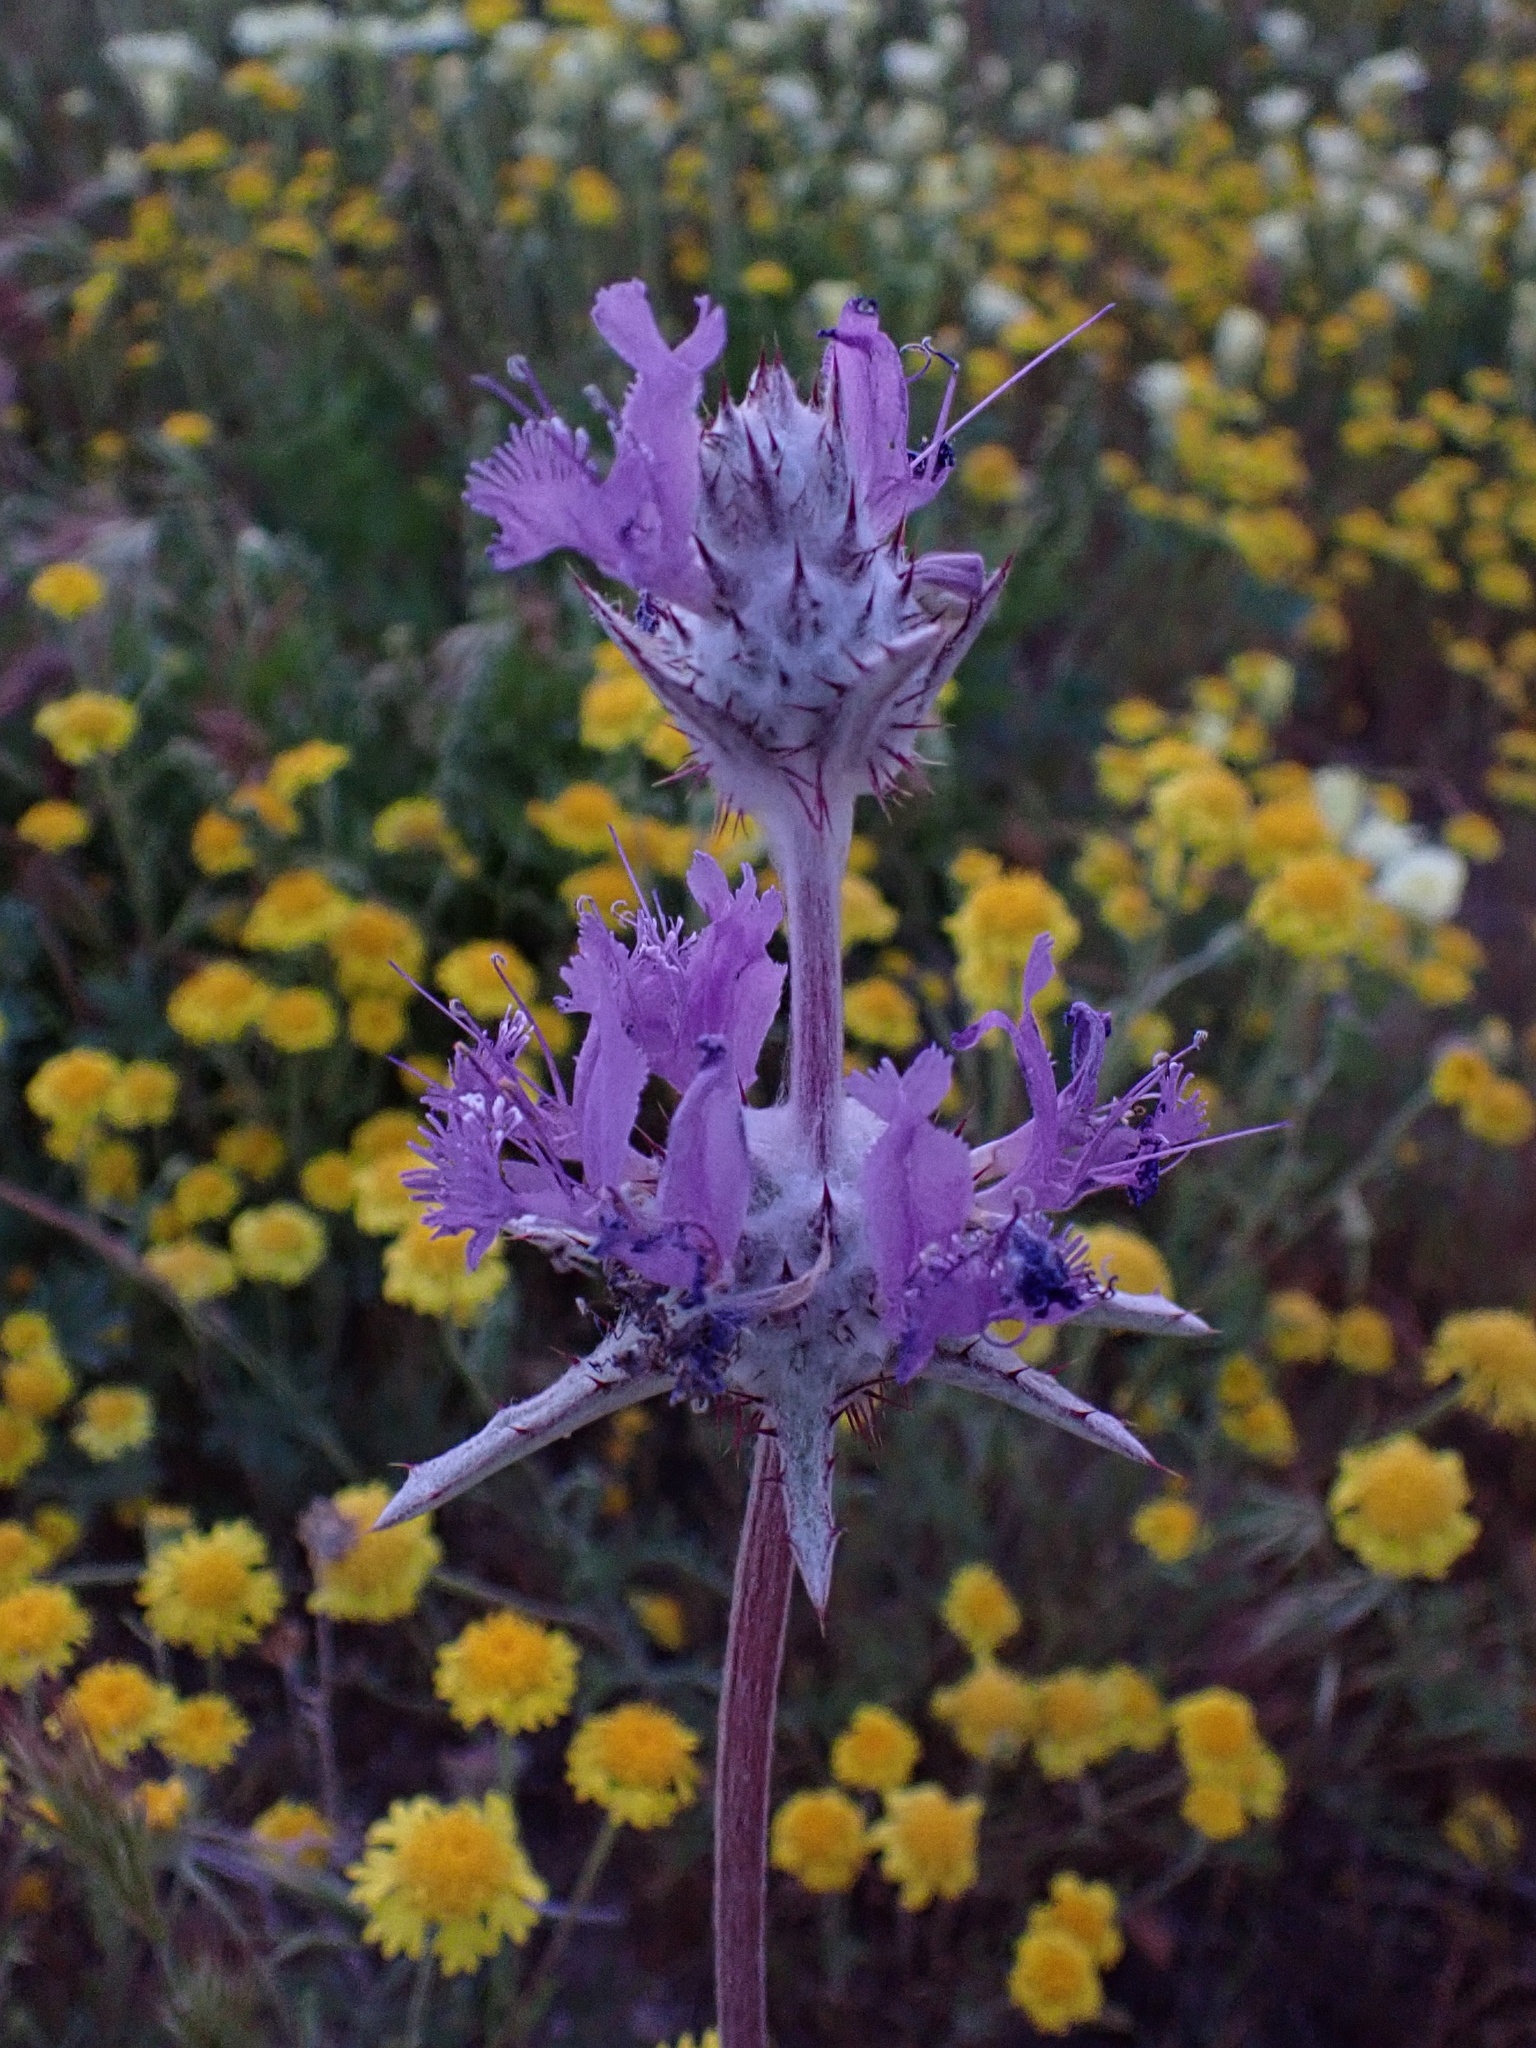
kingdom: Plantae
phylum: Tracheophyta
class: Magnoliopsida
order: Lamiales
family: Lamiaceae
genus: Salvia
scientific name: Salvia carduacea
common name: Thistle sage
